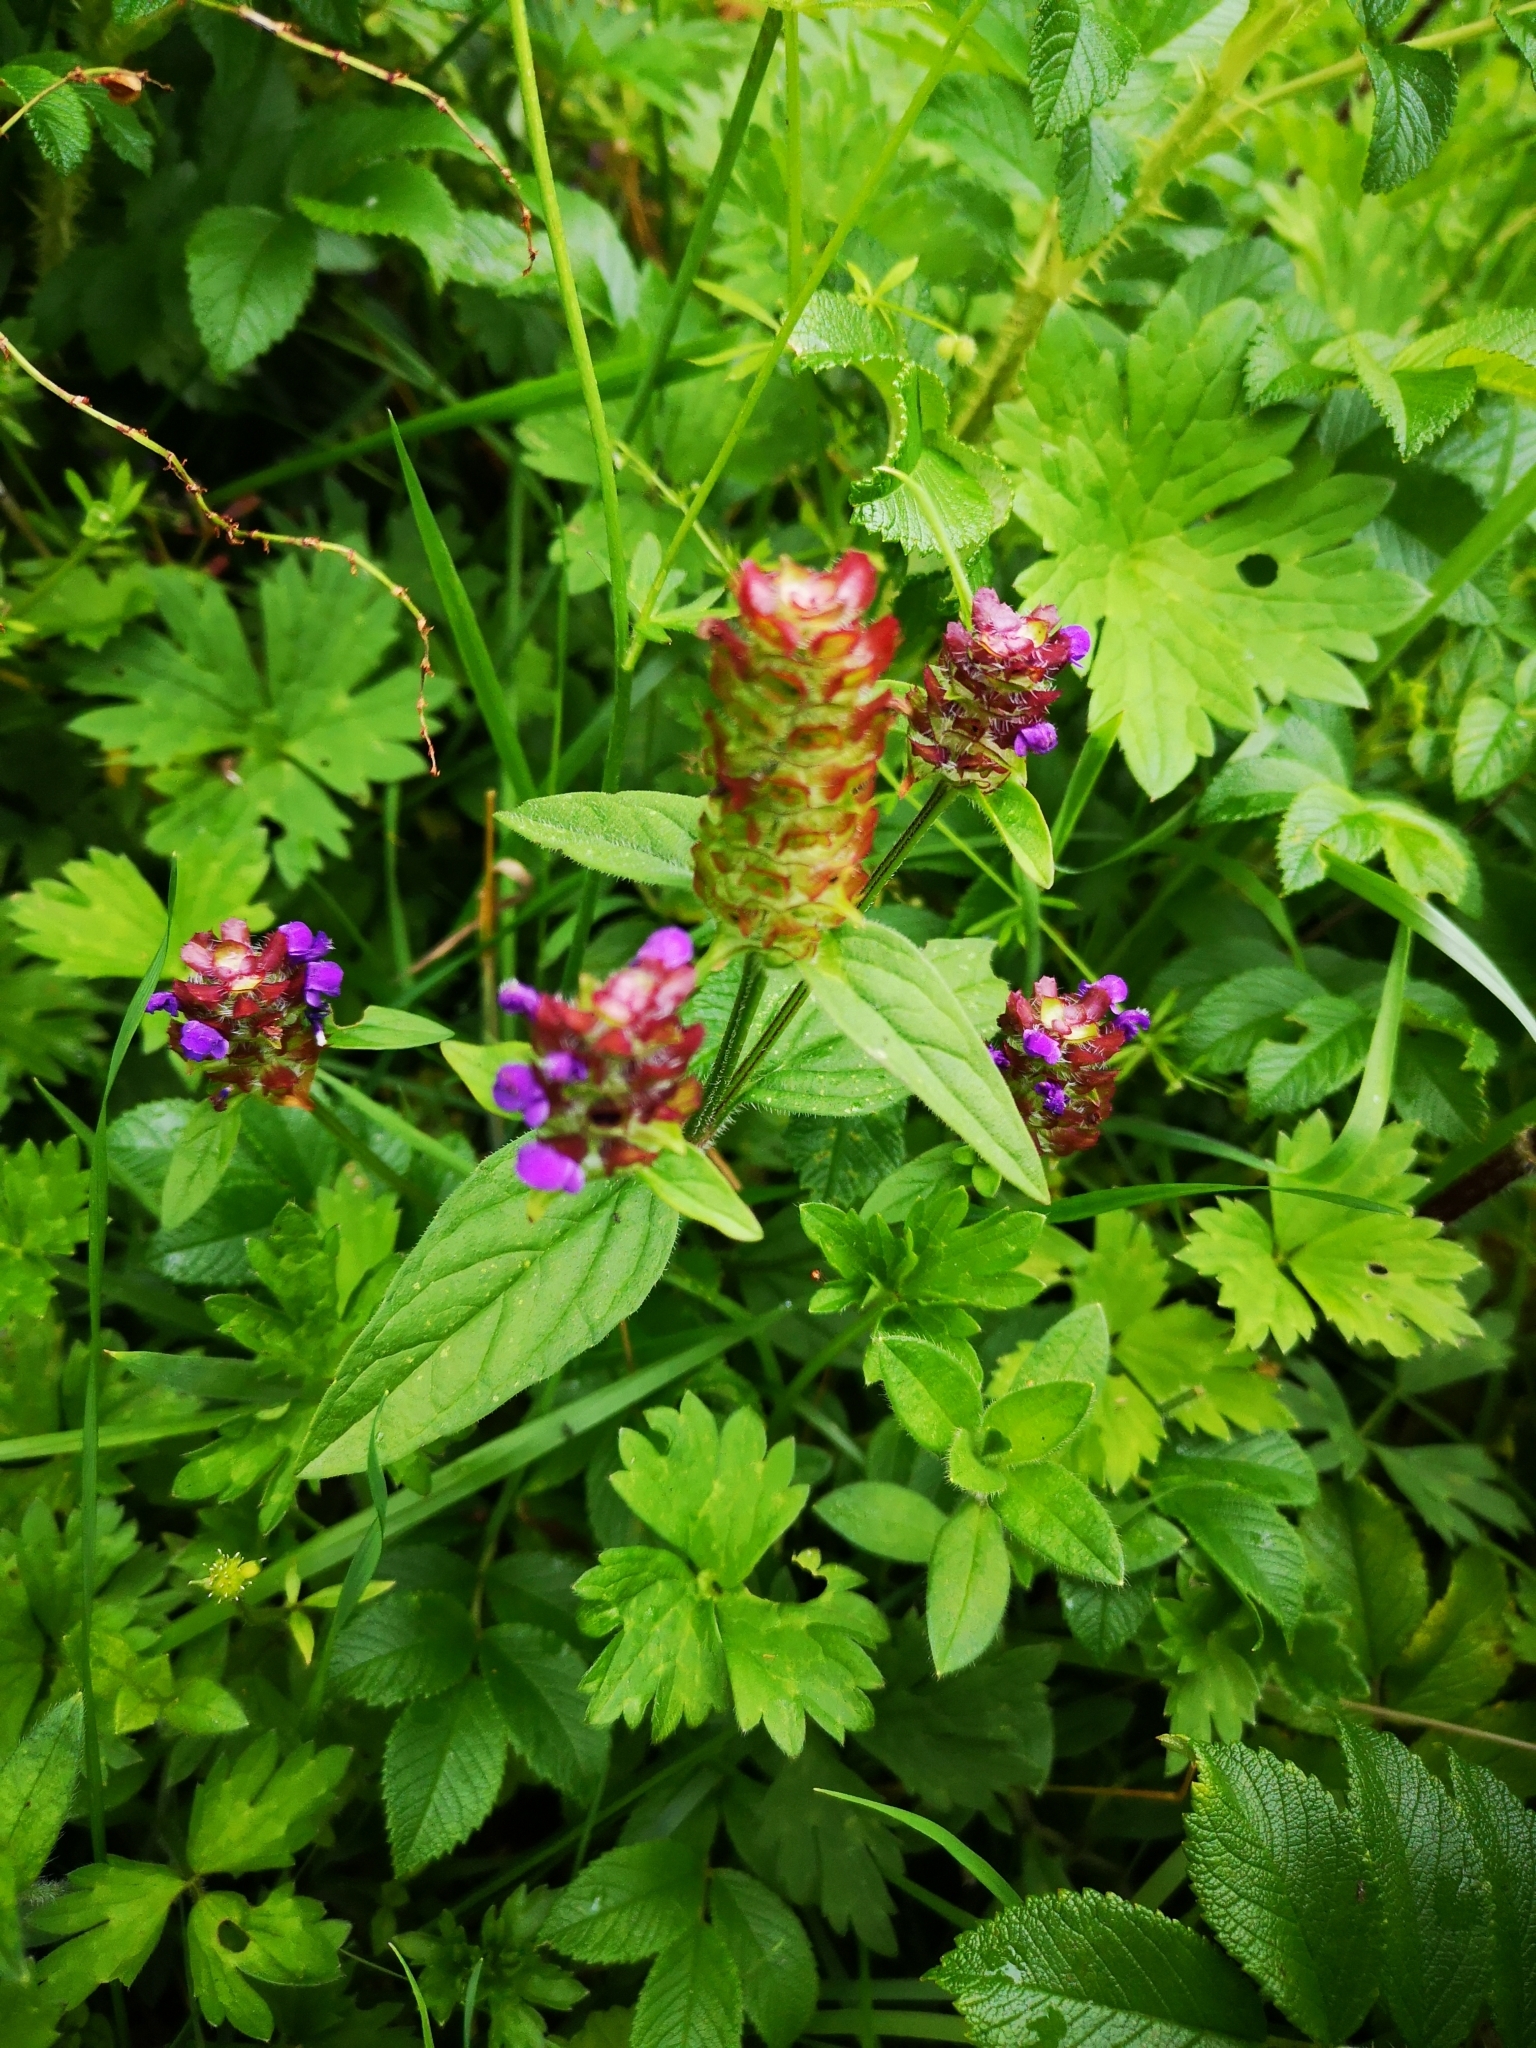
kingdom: Plantae
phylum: Tracheophyta
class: Magnoliopsida
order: Lamiales
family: Lamiaceae
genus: Prunella
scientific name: Prunella vulgaris
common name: Heal-all
